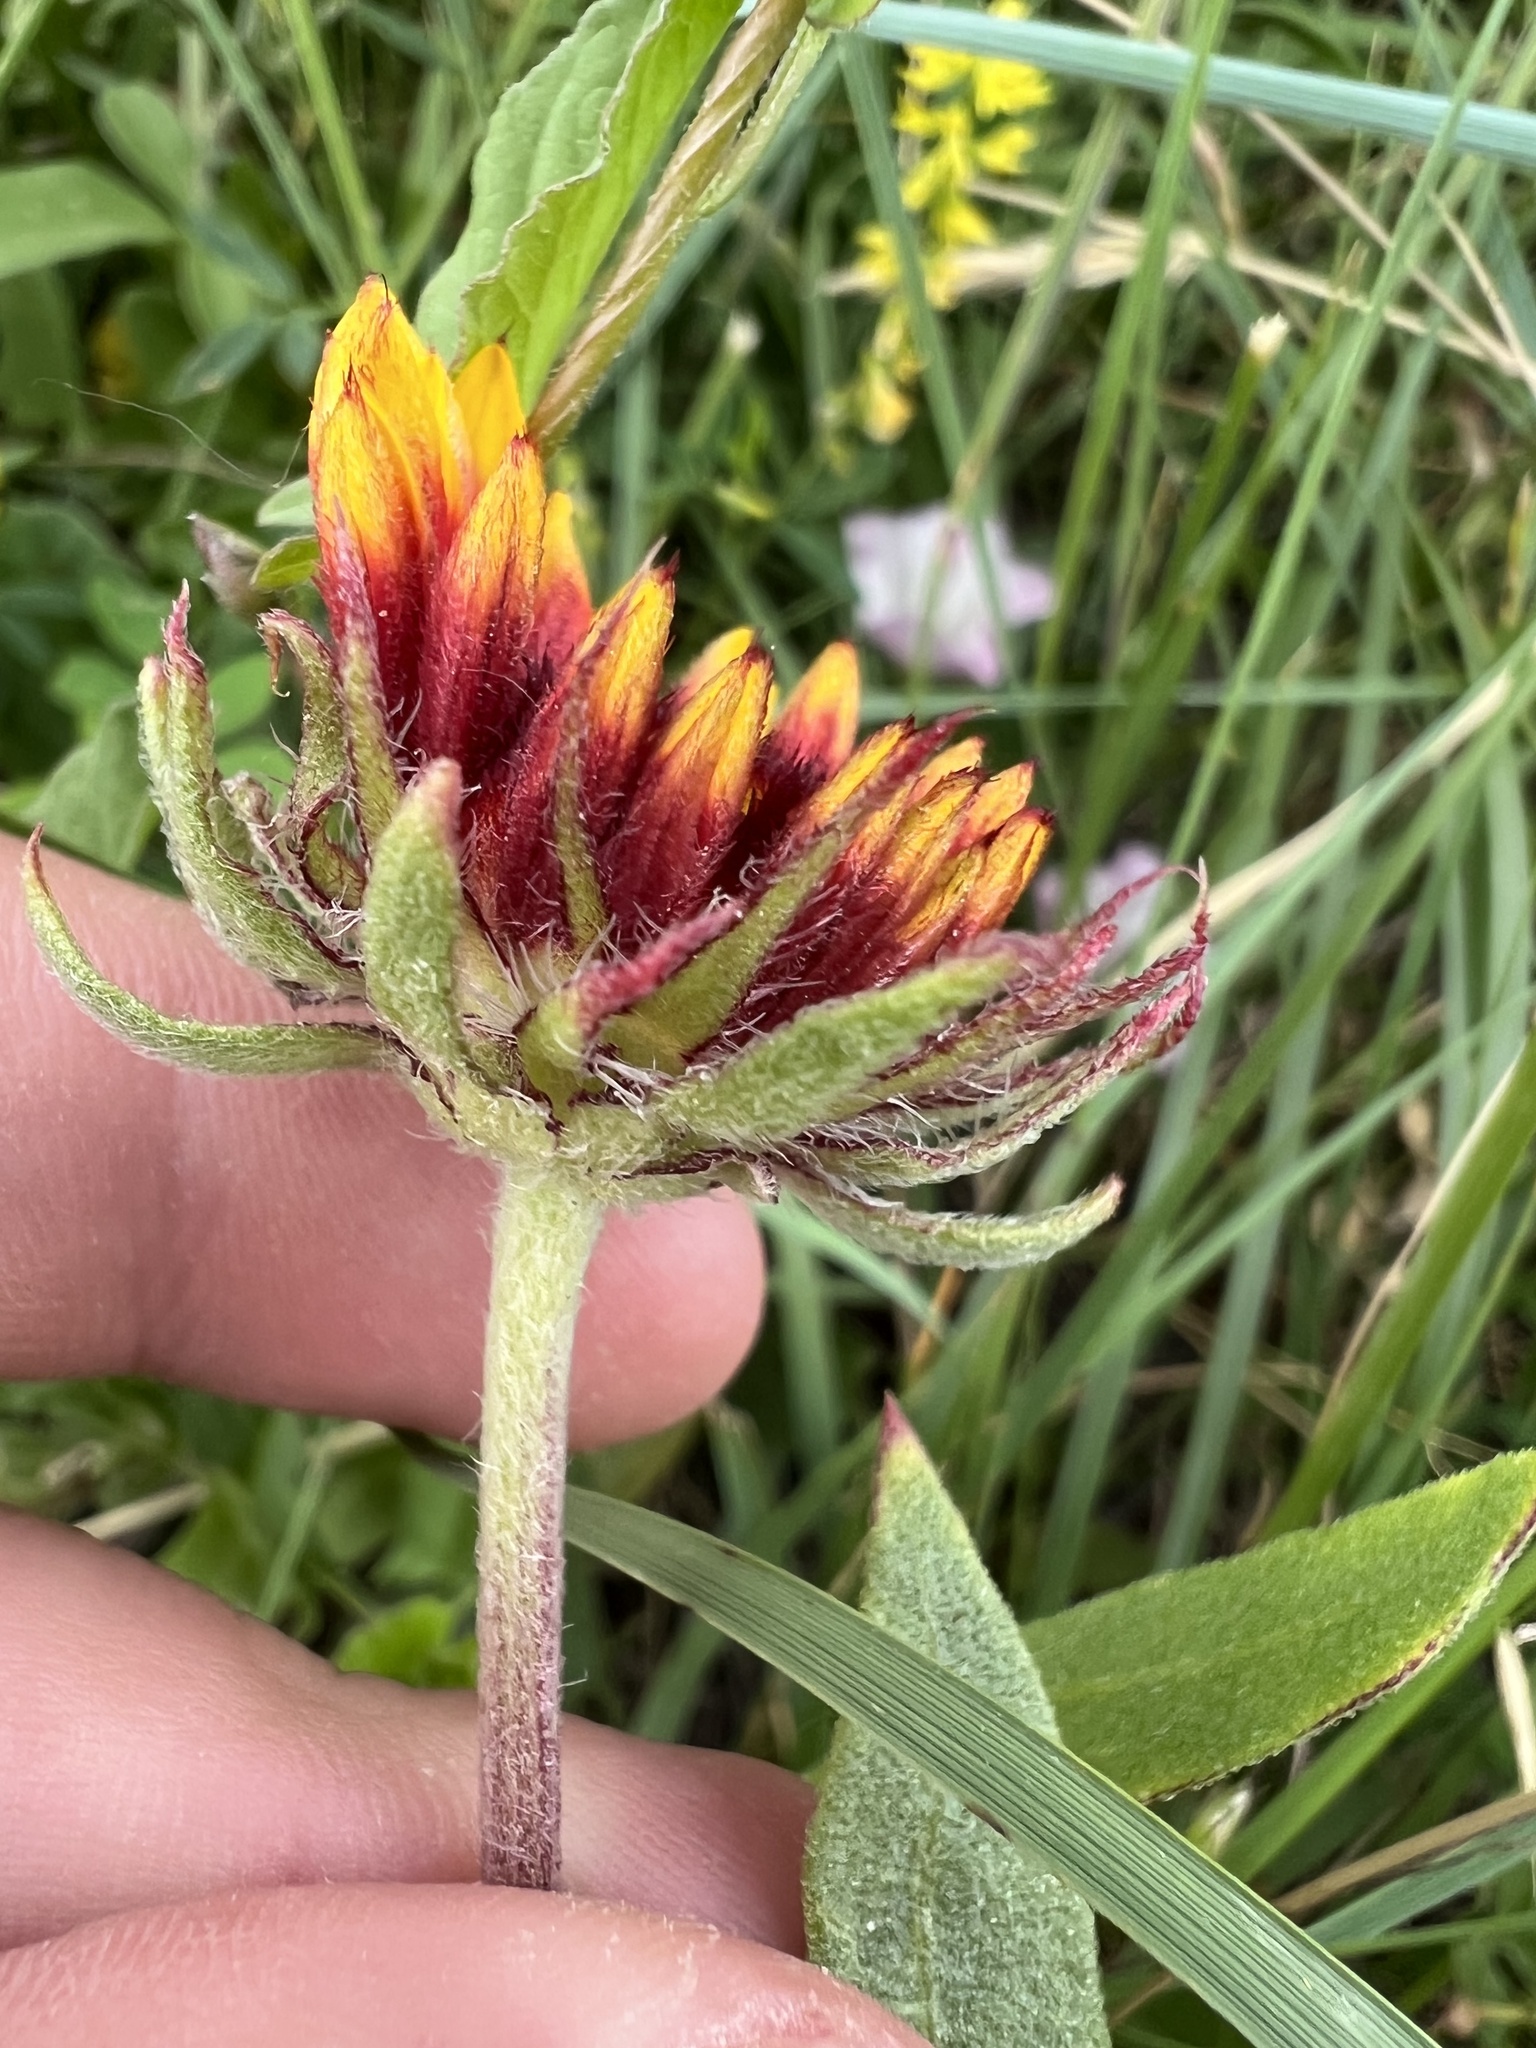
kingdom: Plantae
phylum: Tracheophyta
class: Magnoliopsida
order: Asterales
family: Asteraceae
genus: Gaillardia
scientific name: Gaillardia aristata
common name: Blanket-flower
